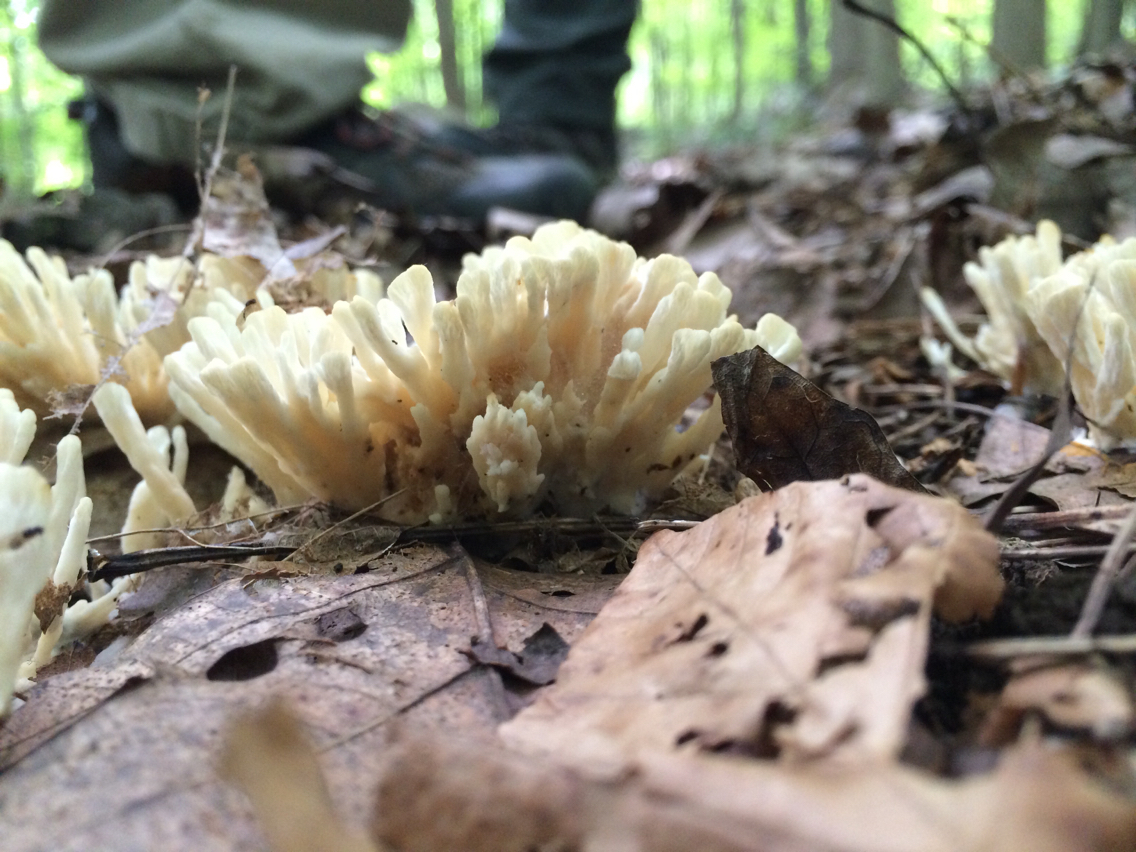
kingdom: Fungi
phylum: Basidiomycota
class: Agaricomycetes
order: Sebacinales
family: Sebacinaceae
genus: Sebacina
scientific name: Sebacina schweinitzii
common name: Jellied false coral fungus
